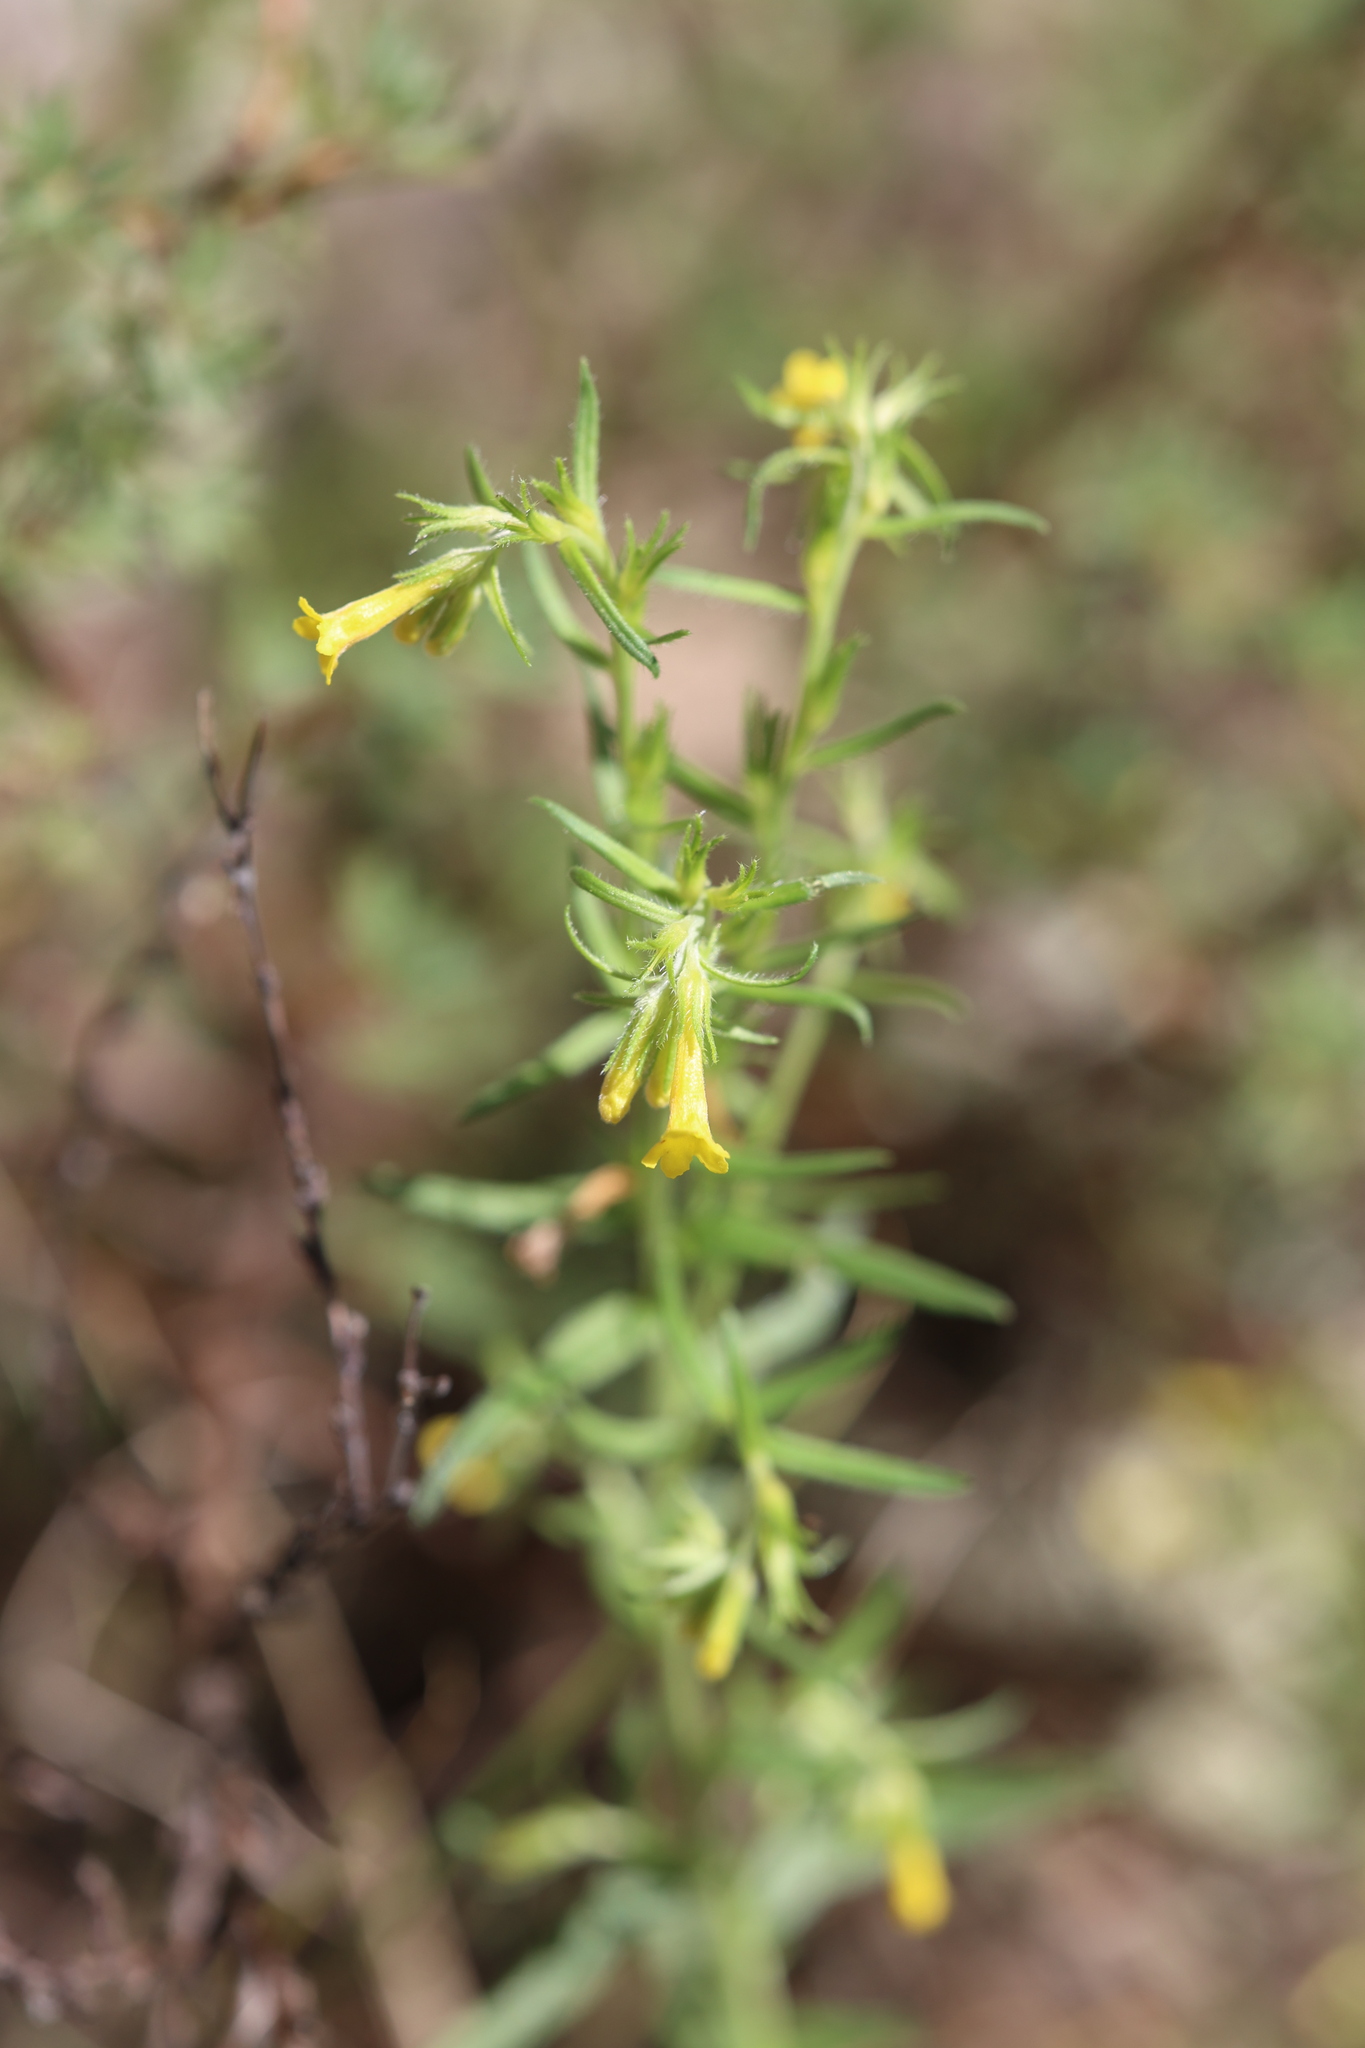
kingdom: Plantae
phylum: Tracheophyta
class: Magnoliopsida
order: Boraginales
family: Boraginaceae
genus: Lithospermum
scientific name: Lithospermum multiflorum
